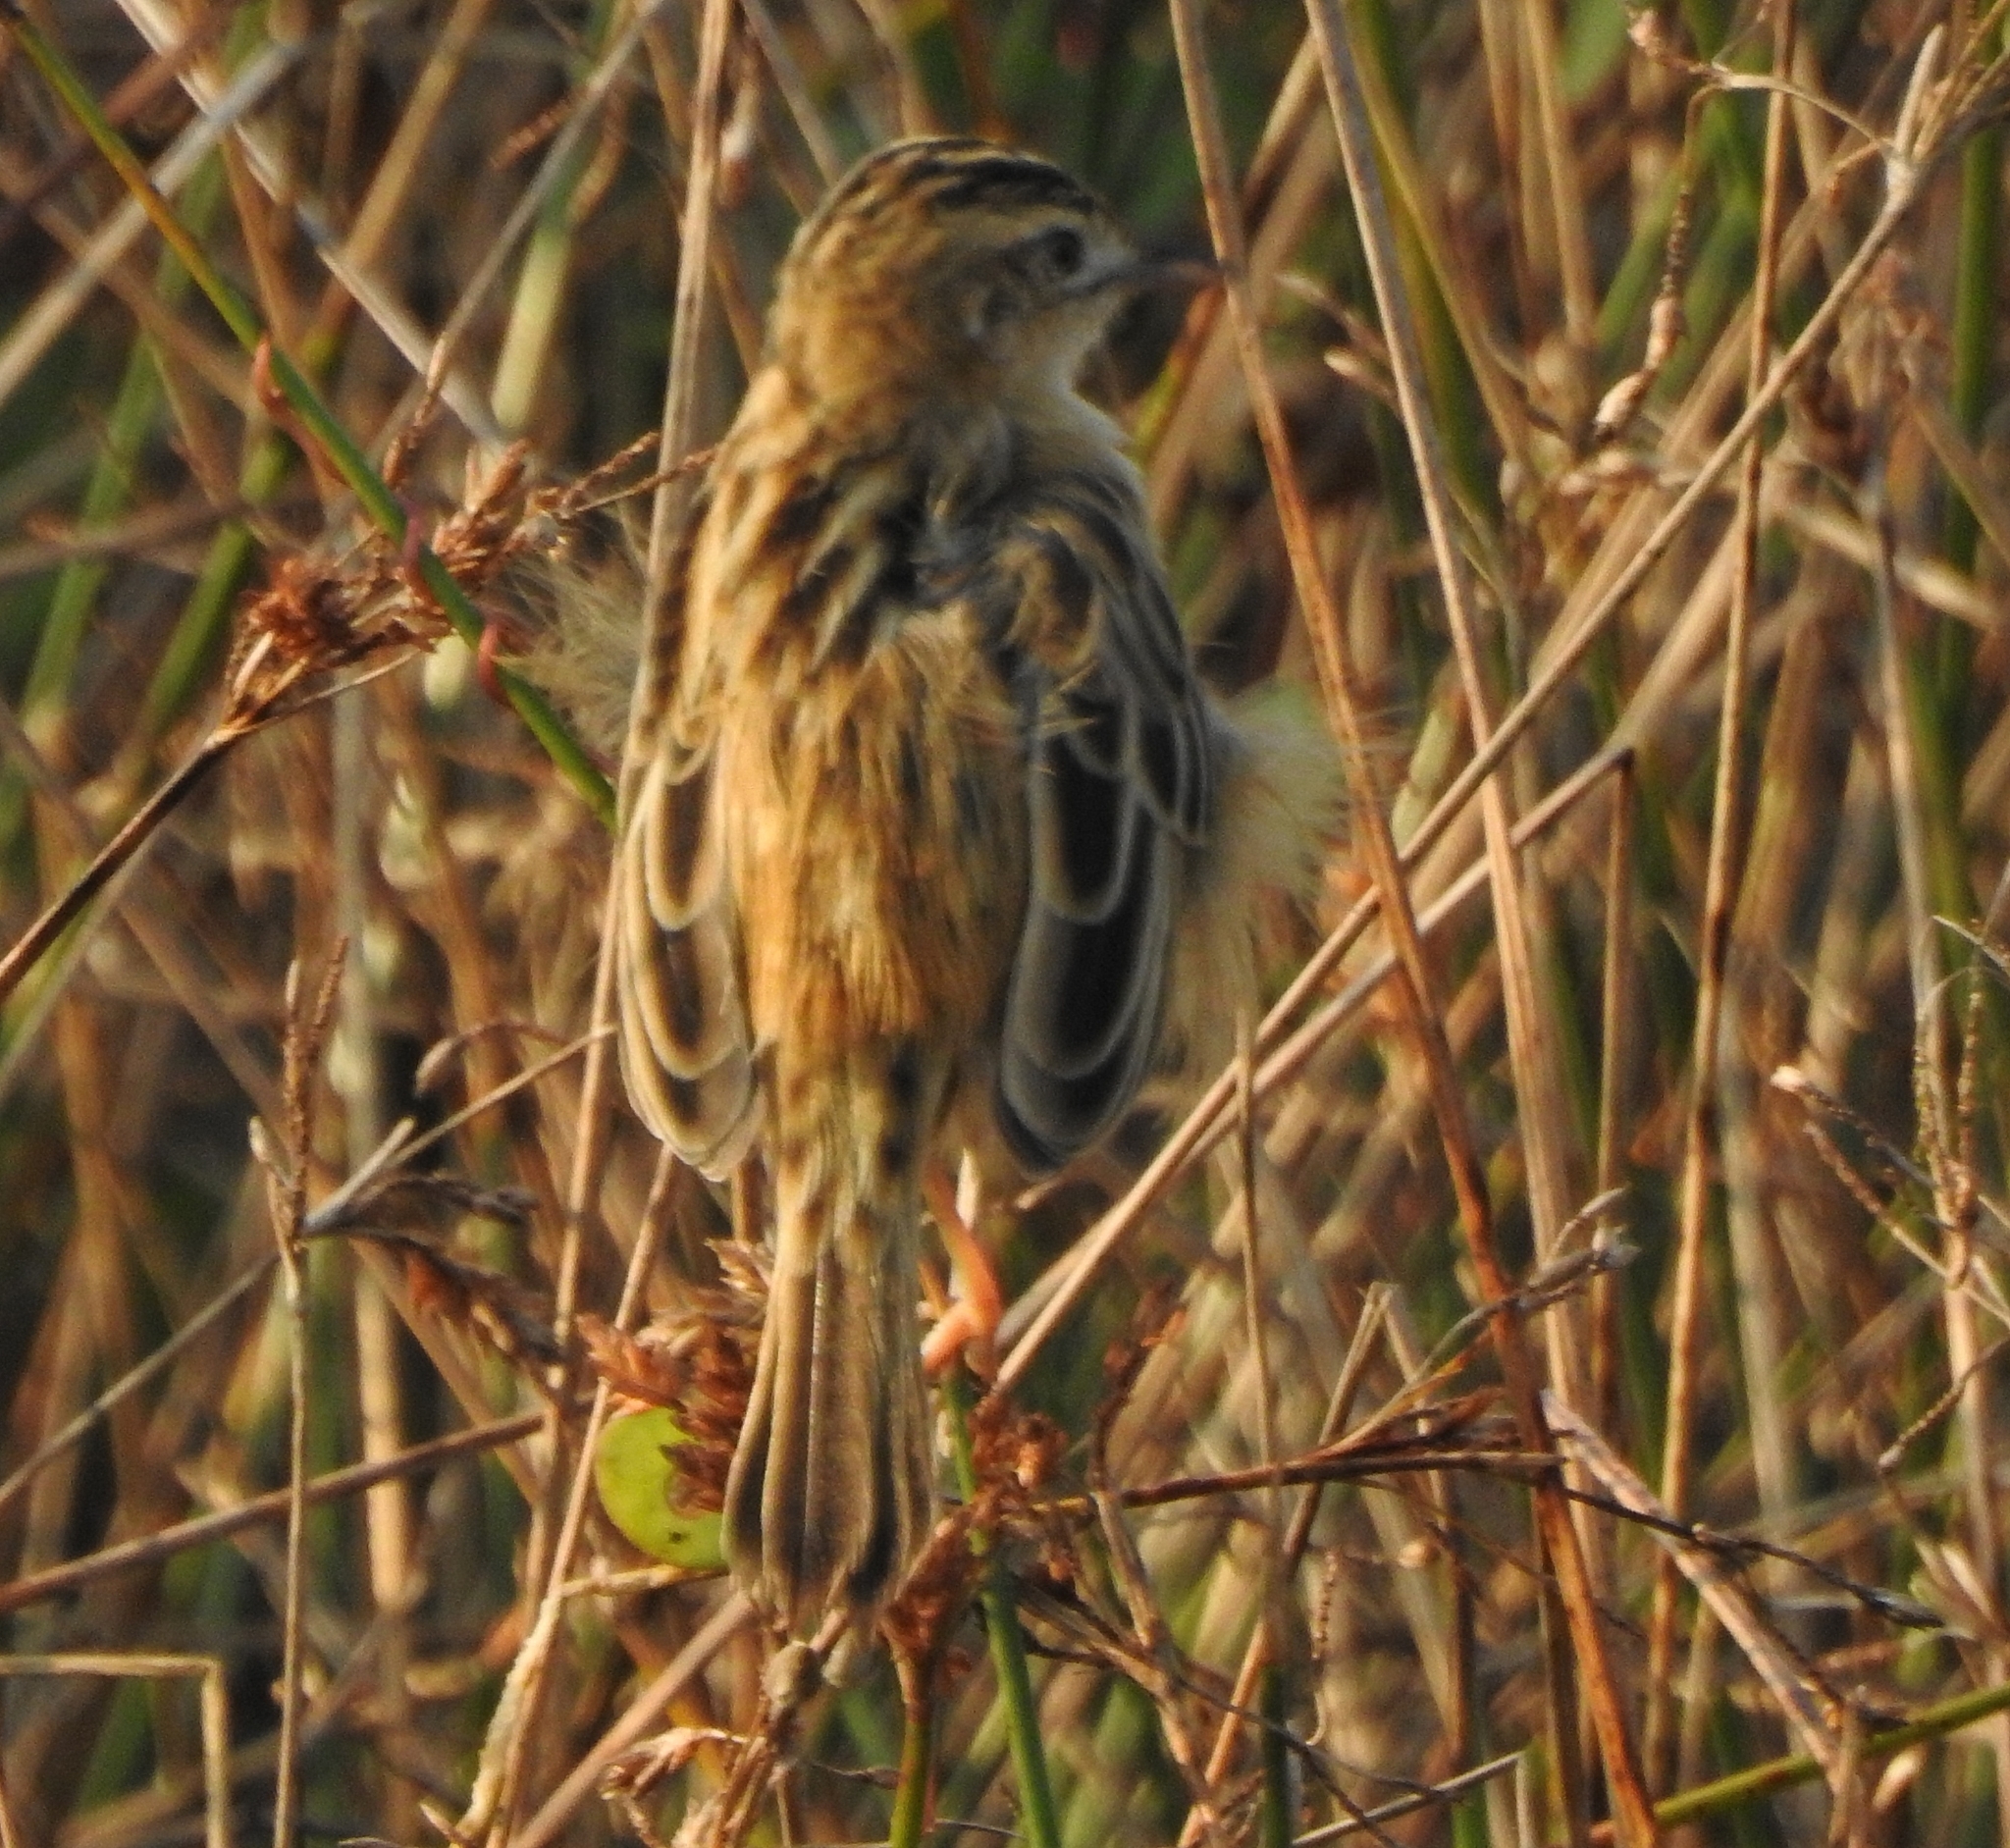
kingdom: Animalia
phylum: Chordata
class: Aves
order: Passeriformes
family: Cisticolidae
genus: Cisticola
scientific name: Cisticola juncidis
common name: Zitting cisticola
